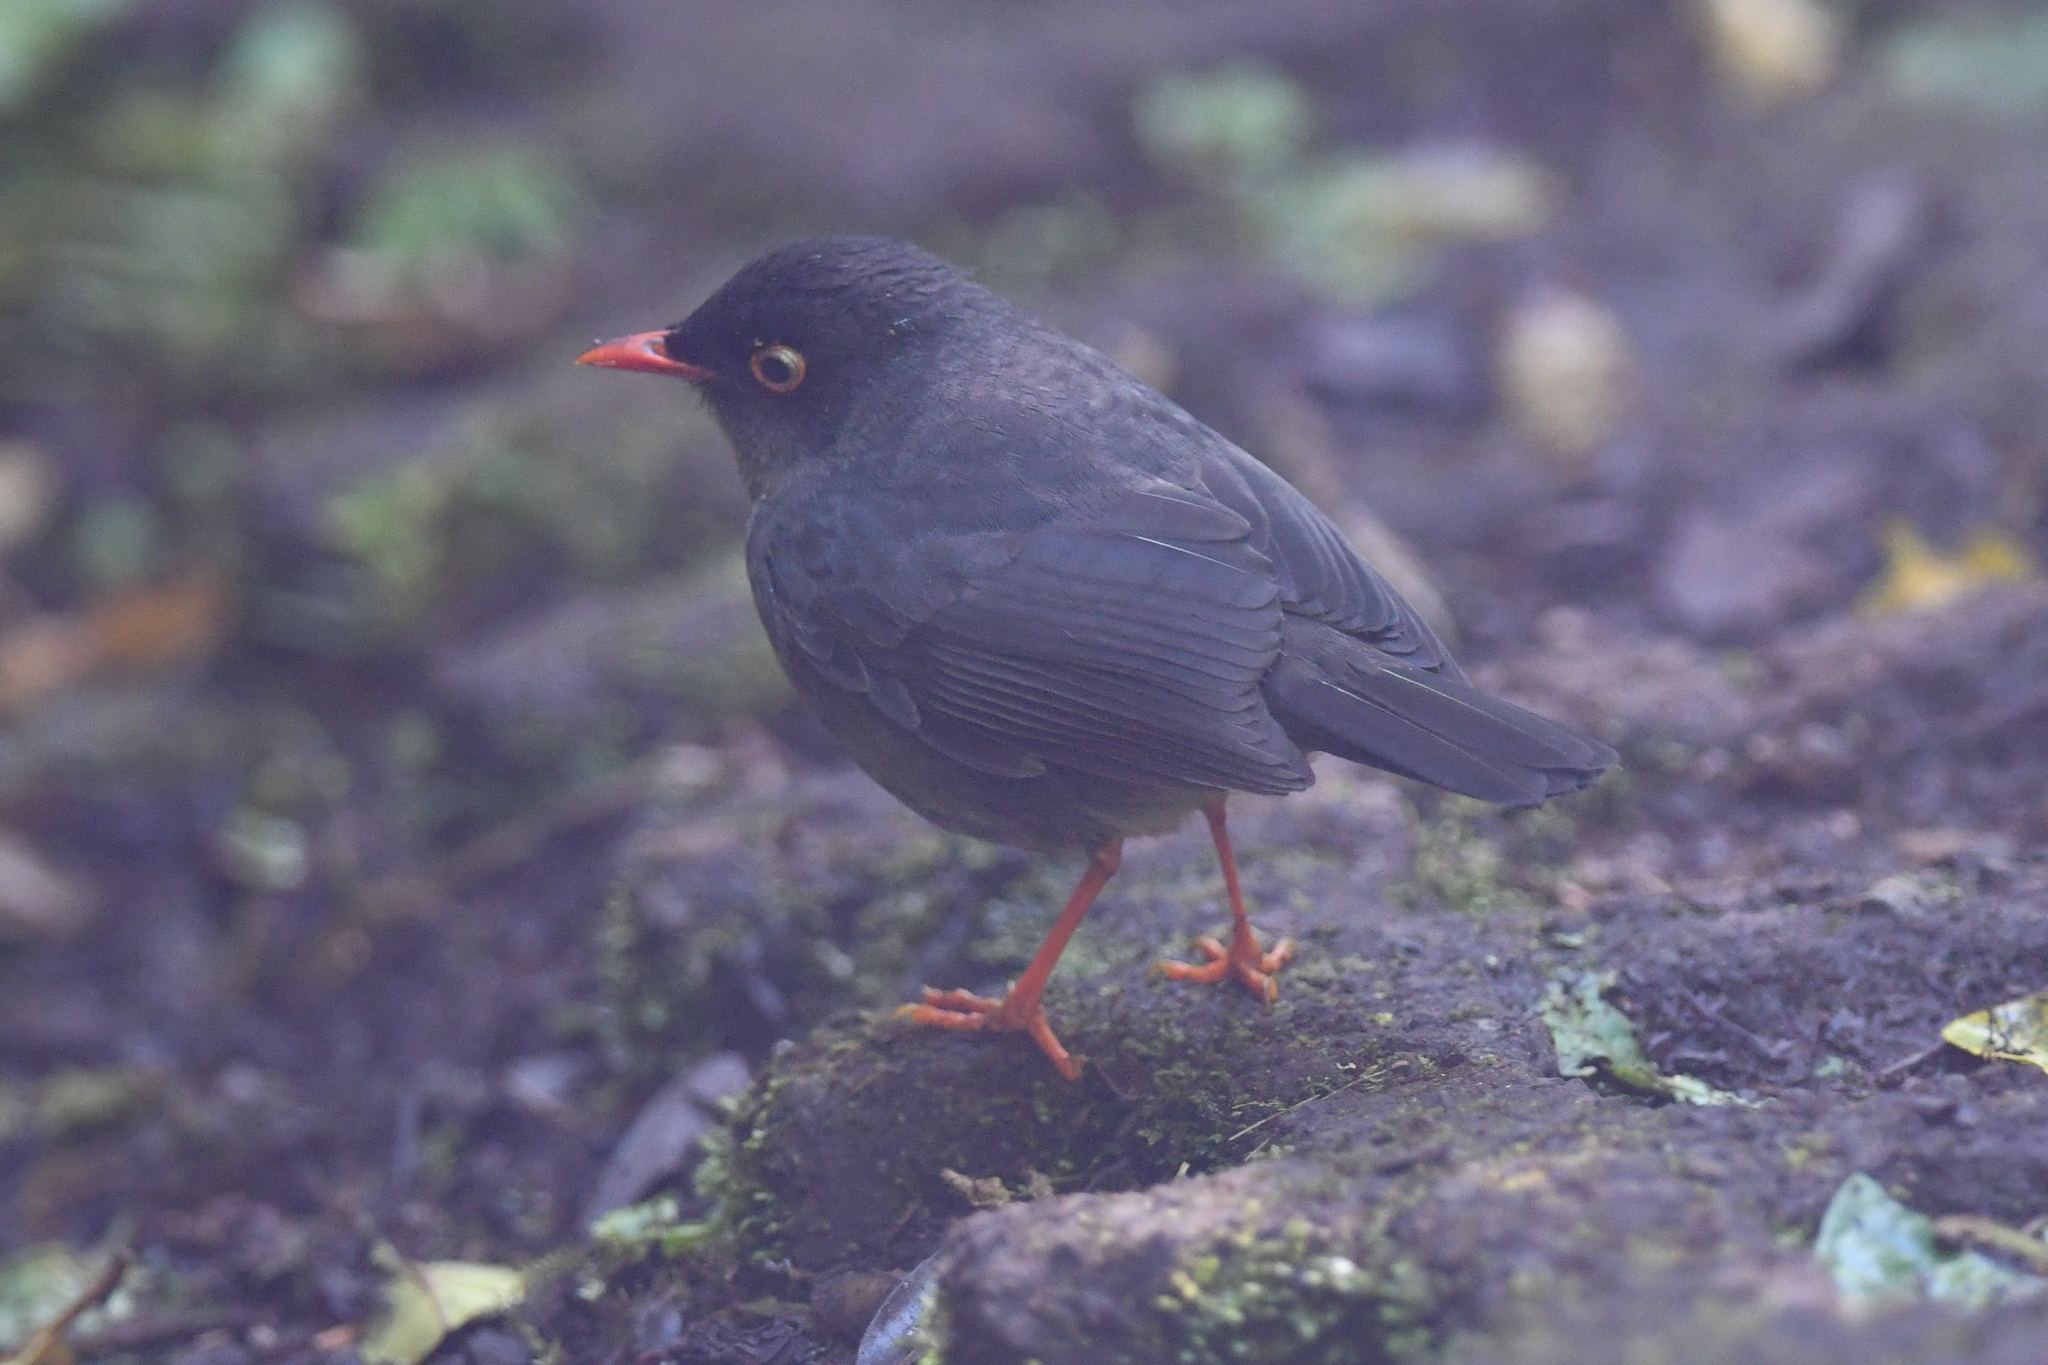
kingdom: Animalia
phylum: Chordata
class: Aves
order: Passeriformes
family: Turdidae
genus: Catharus
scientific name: Catharus fuscater
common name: Slaty-backed nightingale-thrush
